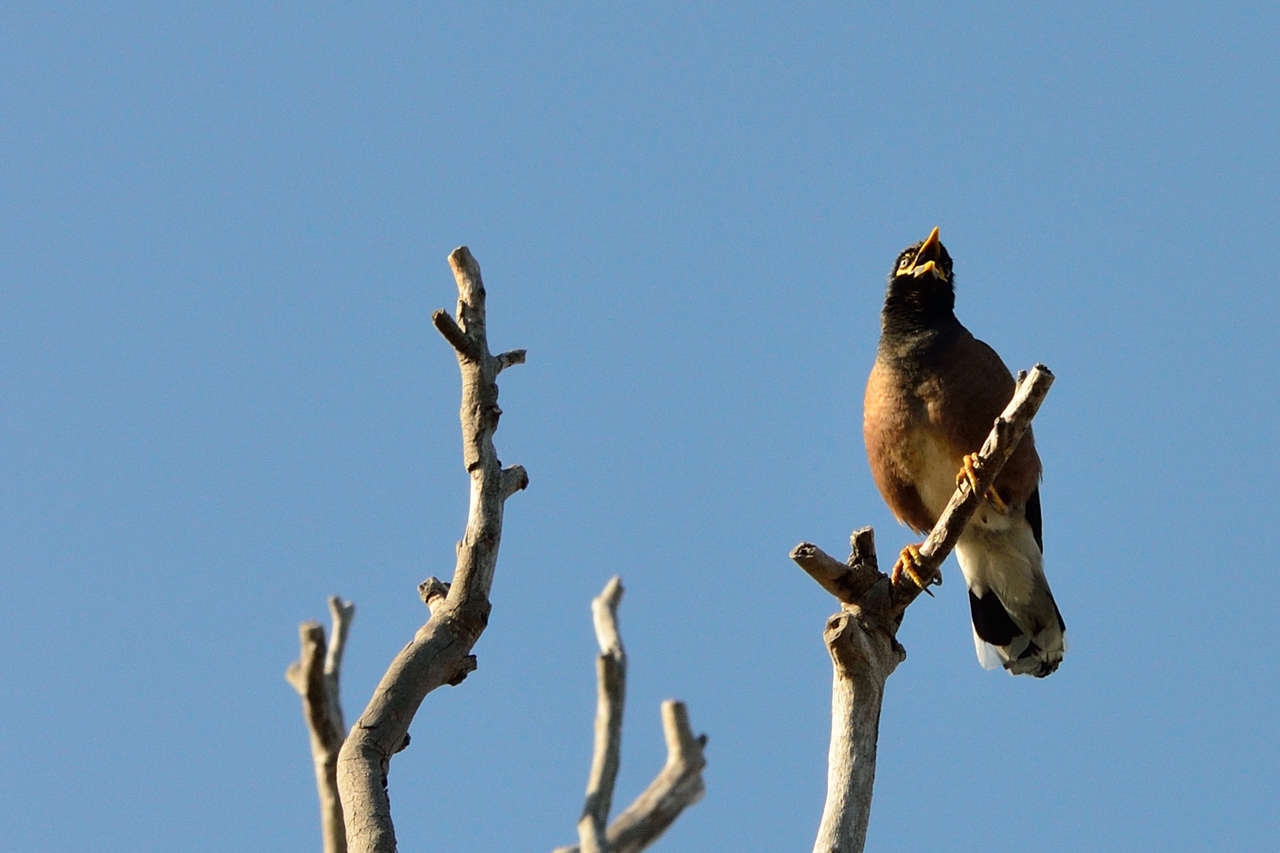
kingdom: Animalia
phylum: Chordata
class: Aves
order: Passeriformes
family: Sturnidae
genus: Acridotheres
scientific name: Acridotheres tristis
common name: Common myna
